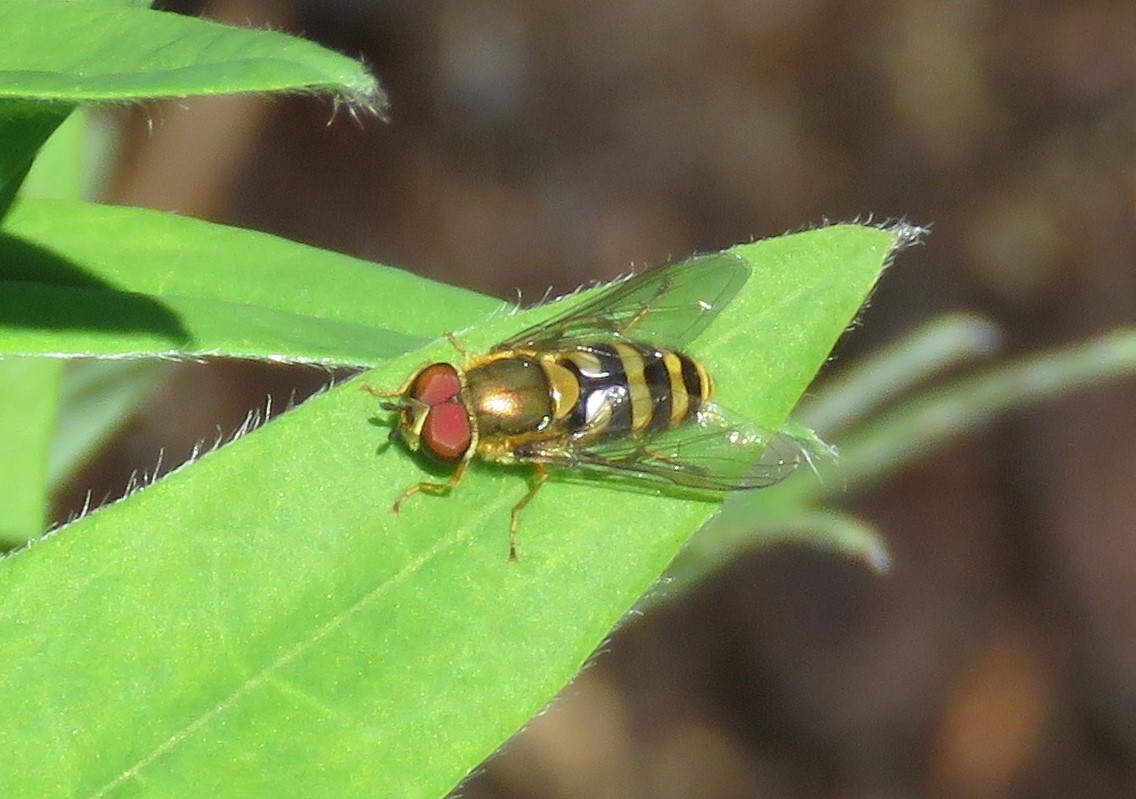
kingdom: Animalia
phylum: Arthropoda
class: Insecta
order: Diptera
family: Syrphidae
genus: Syrphus
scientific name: Syrphus
